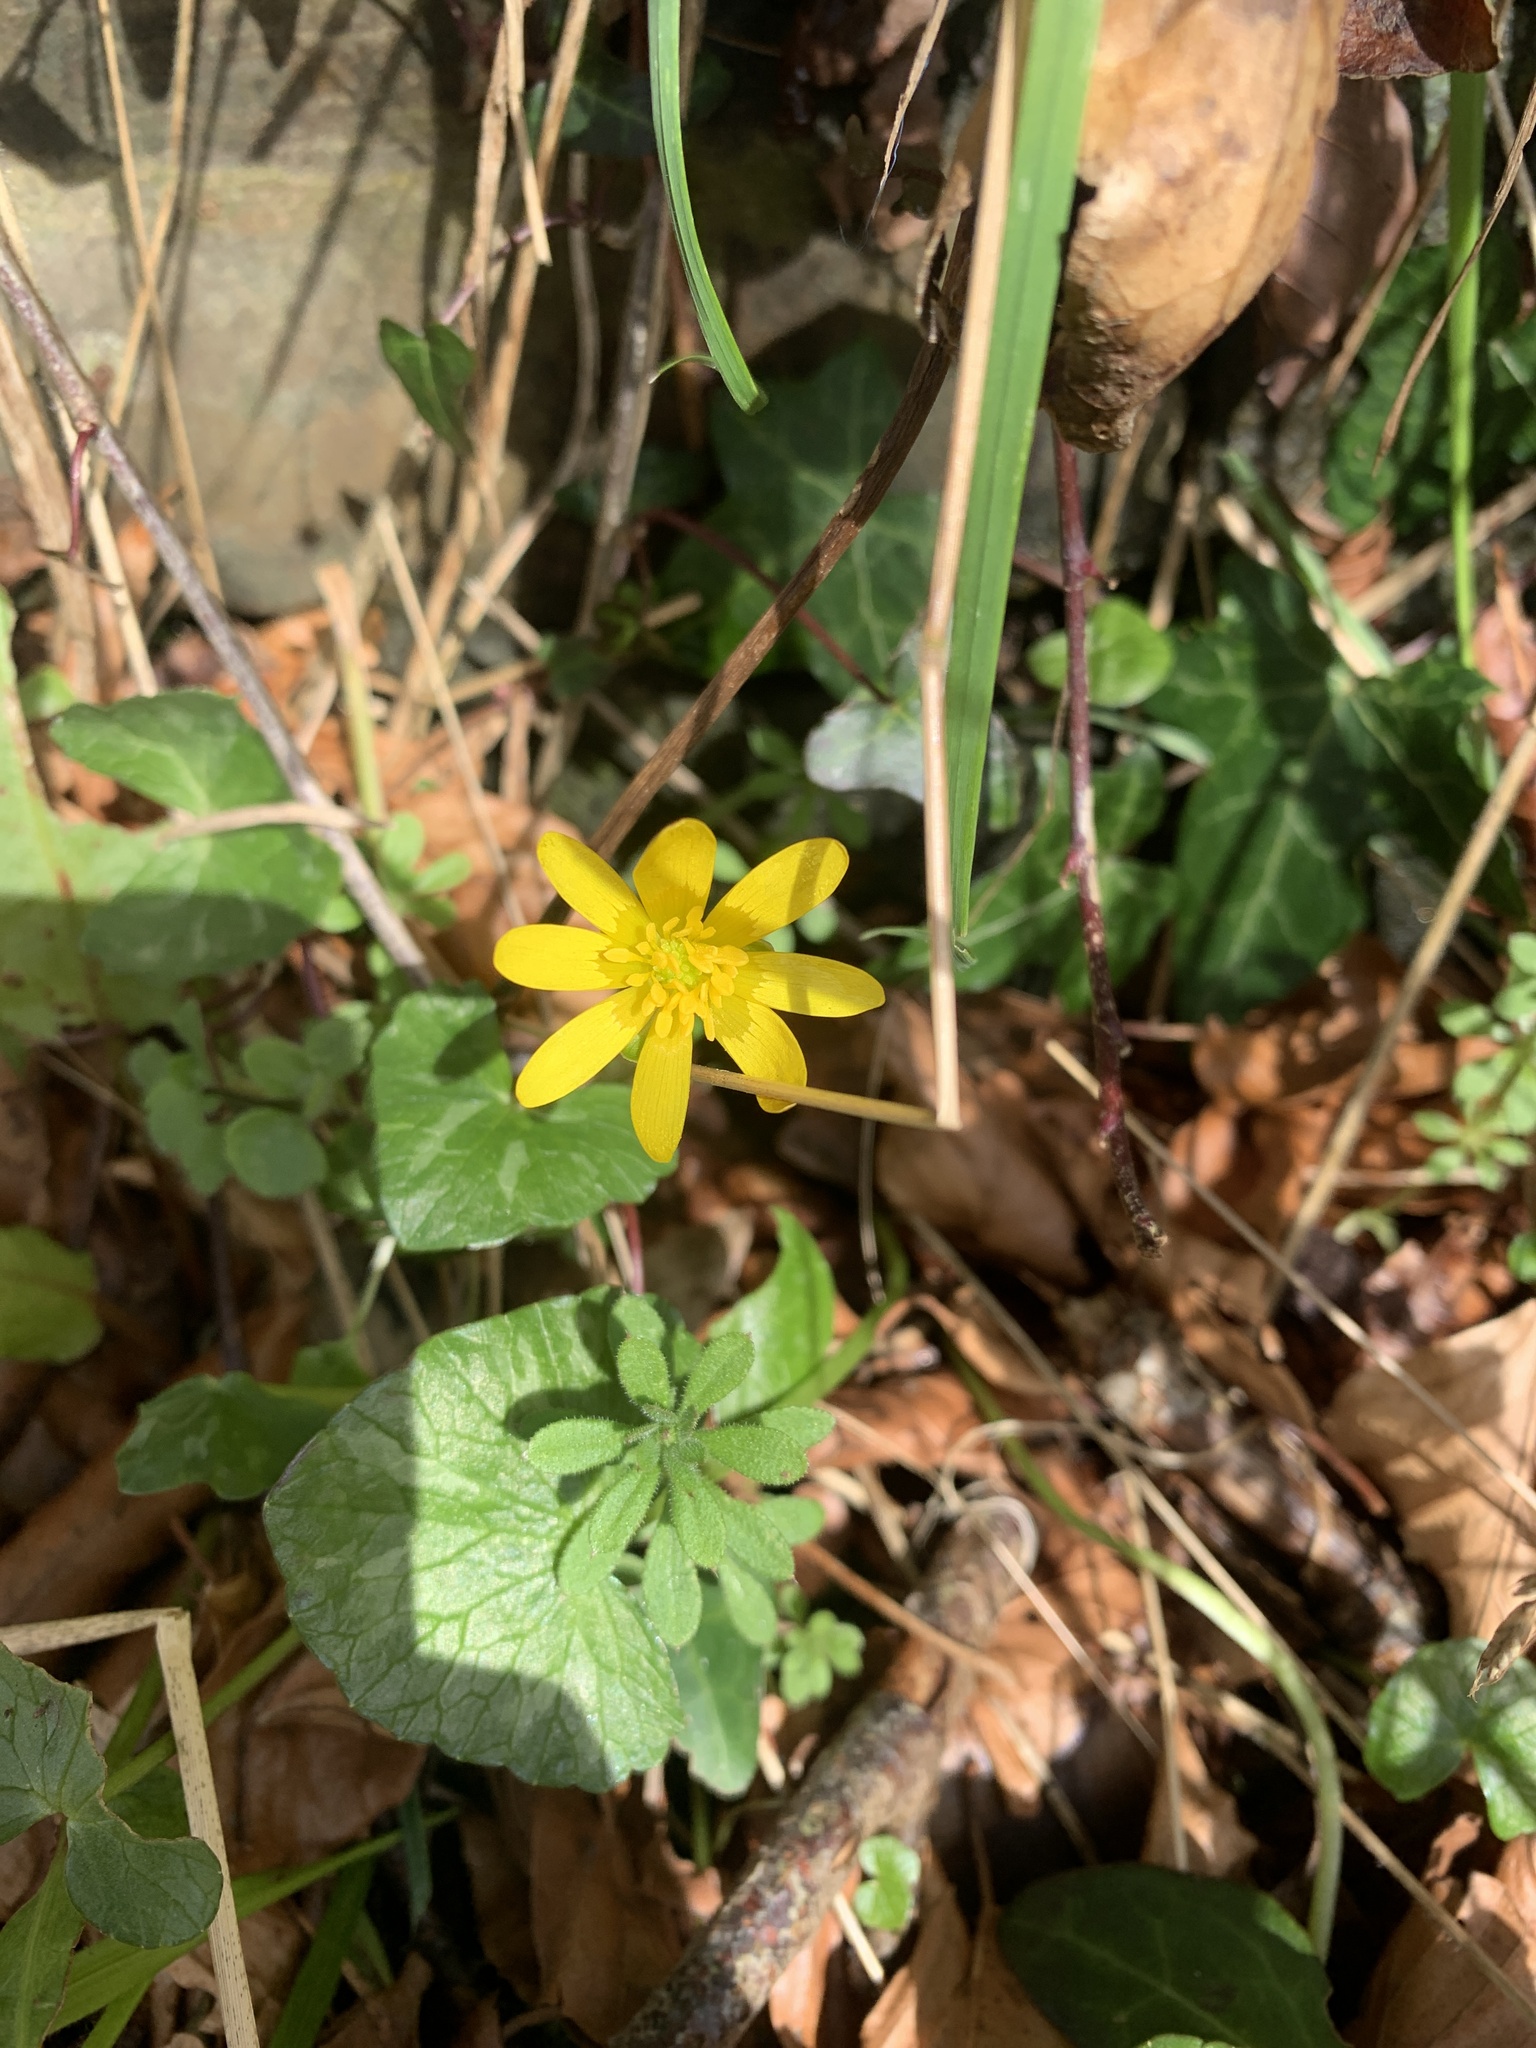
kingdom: Plantae
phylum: Tracheophyta
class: Magnoliopsida
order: Ranunculales
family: Ranunculaceae
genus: Ficaria
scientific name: Ficaria verna
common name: Lesser celandine
